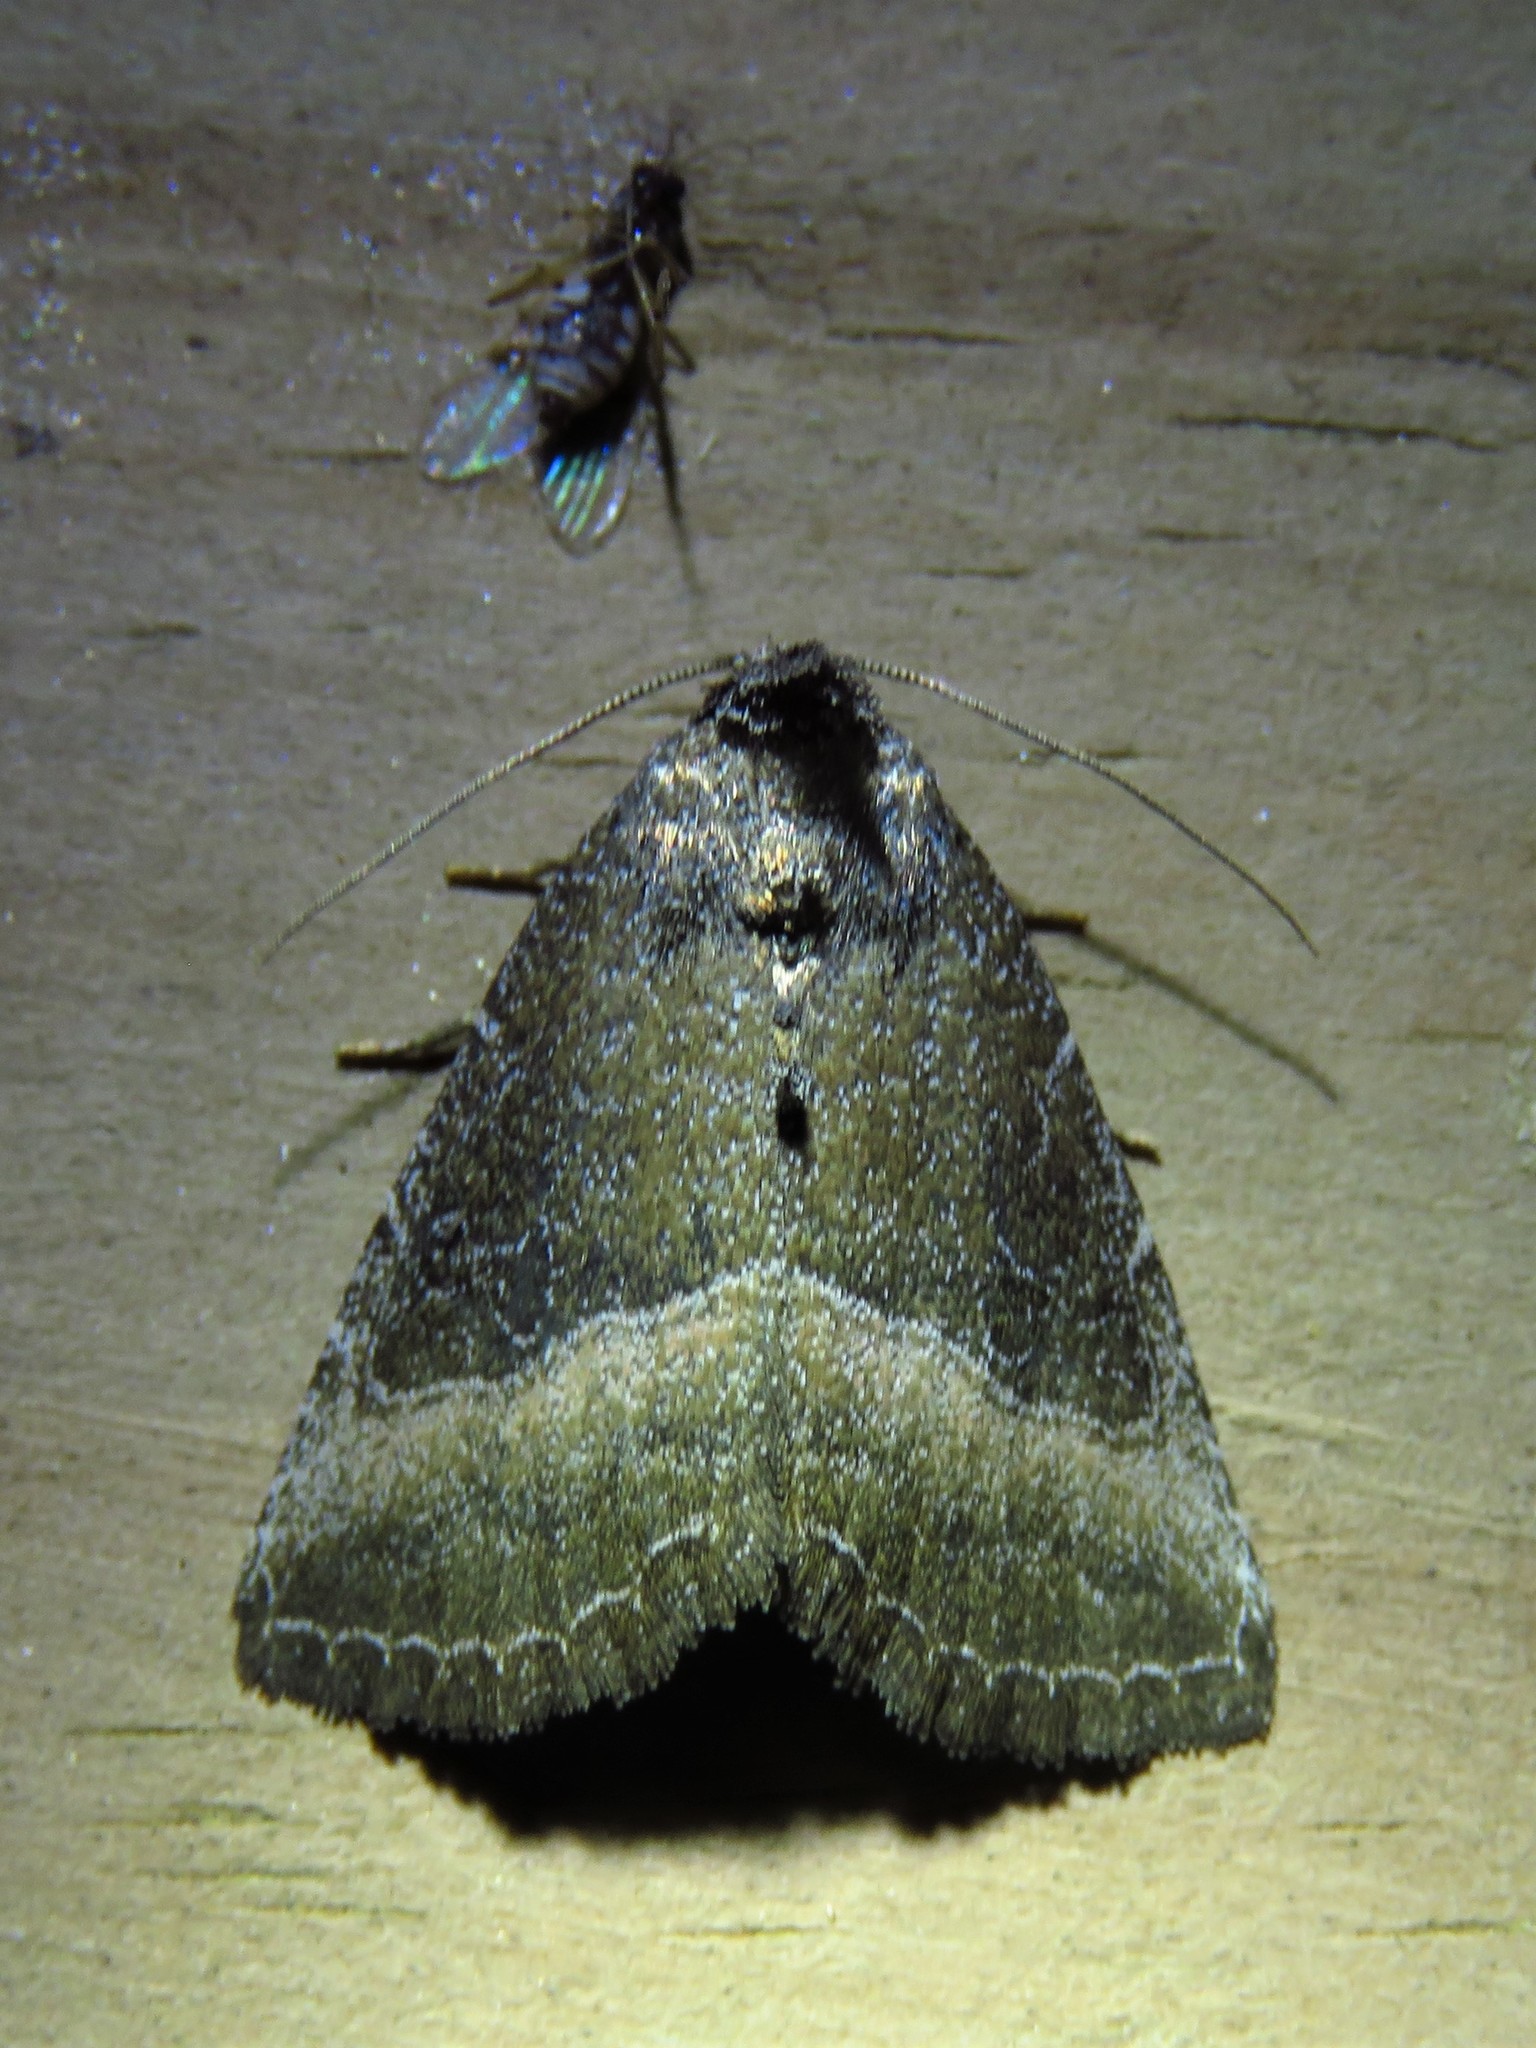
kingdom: Animalia
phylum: Arthropoda
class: Insecta
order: Lepidoptera
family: Noctuidae
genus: Ogdoconta
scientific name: Ogdoconta cinereola
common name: Common pinkband
